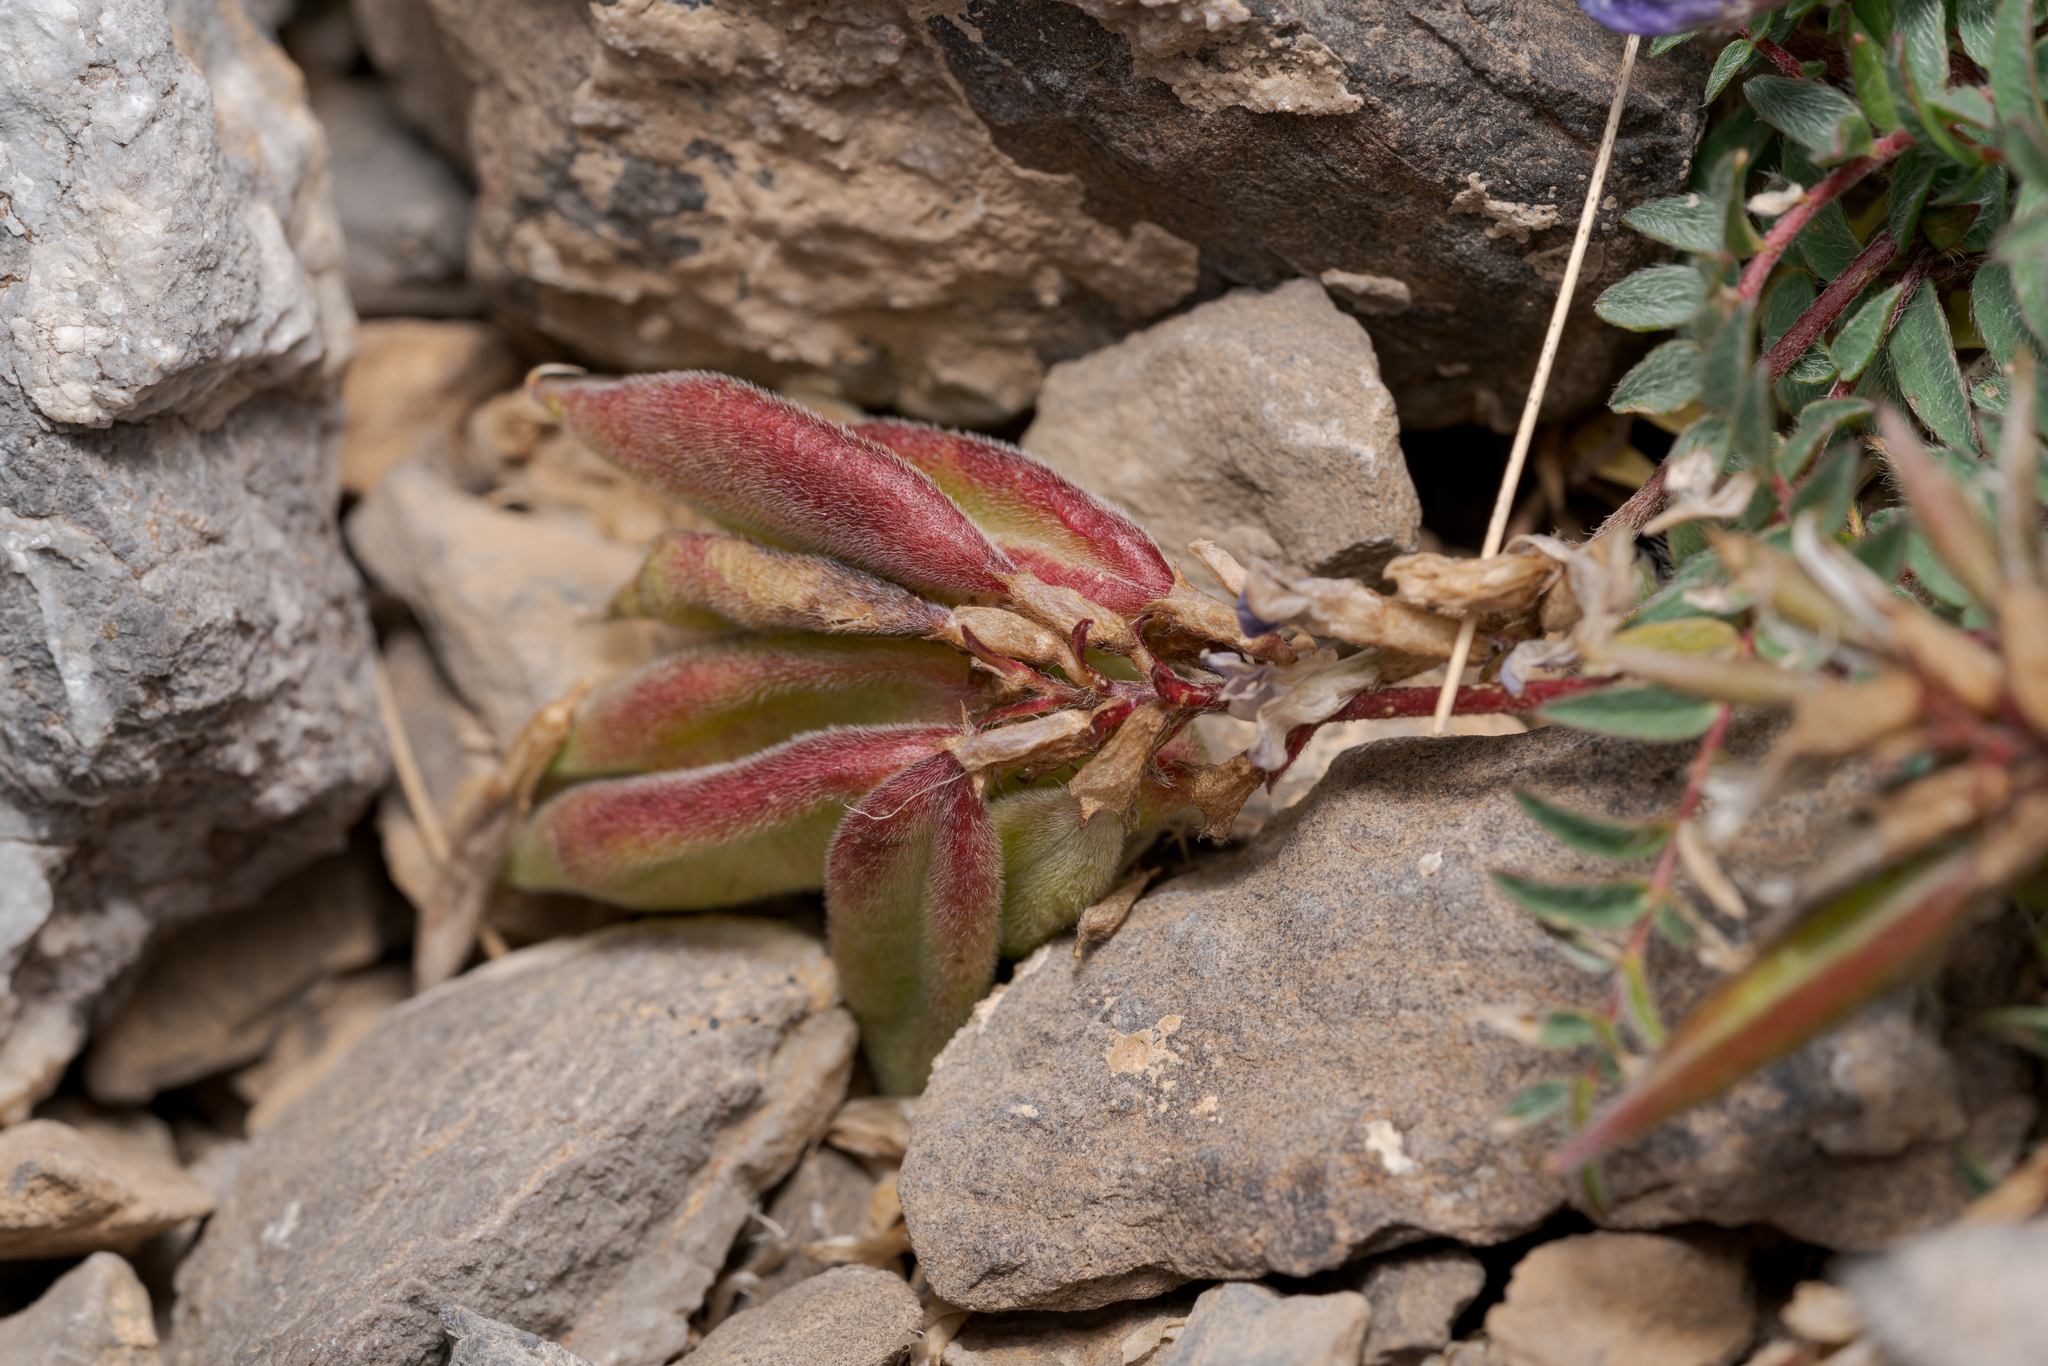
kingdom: Plantae
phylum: Tracheophyta
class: Magnoliopsida
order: Fabales
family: Fabaceae
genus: Oxytropis
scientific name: Oxytropis montana
